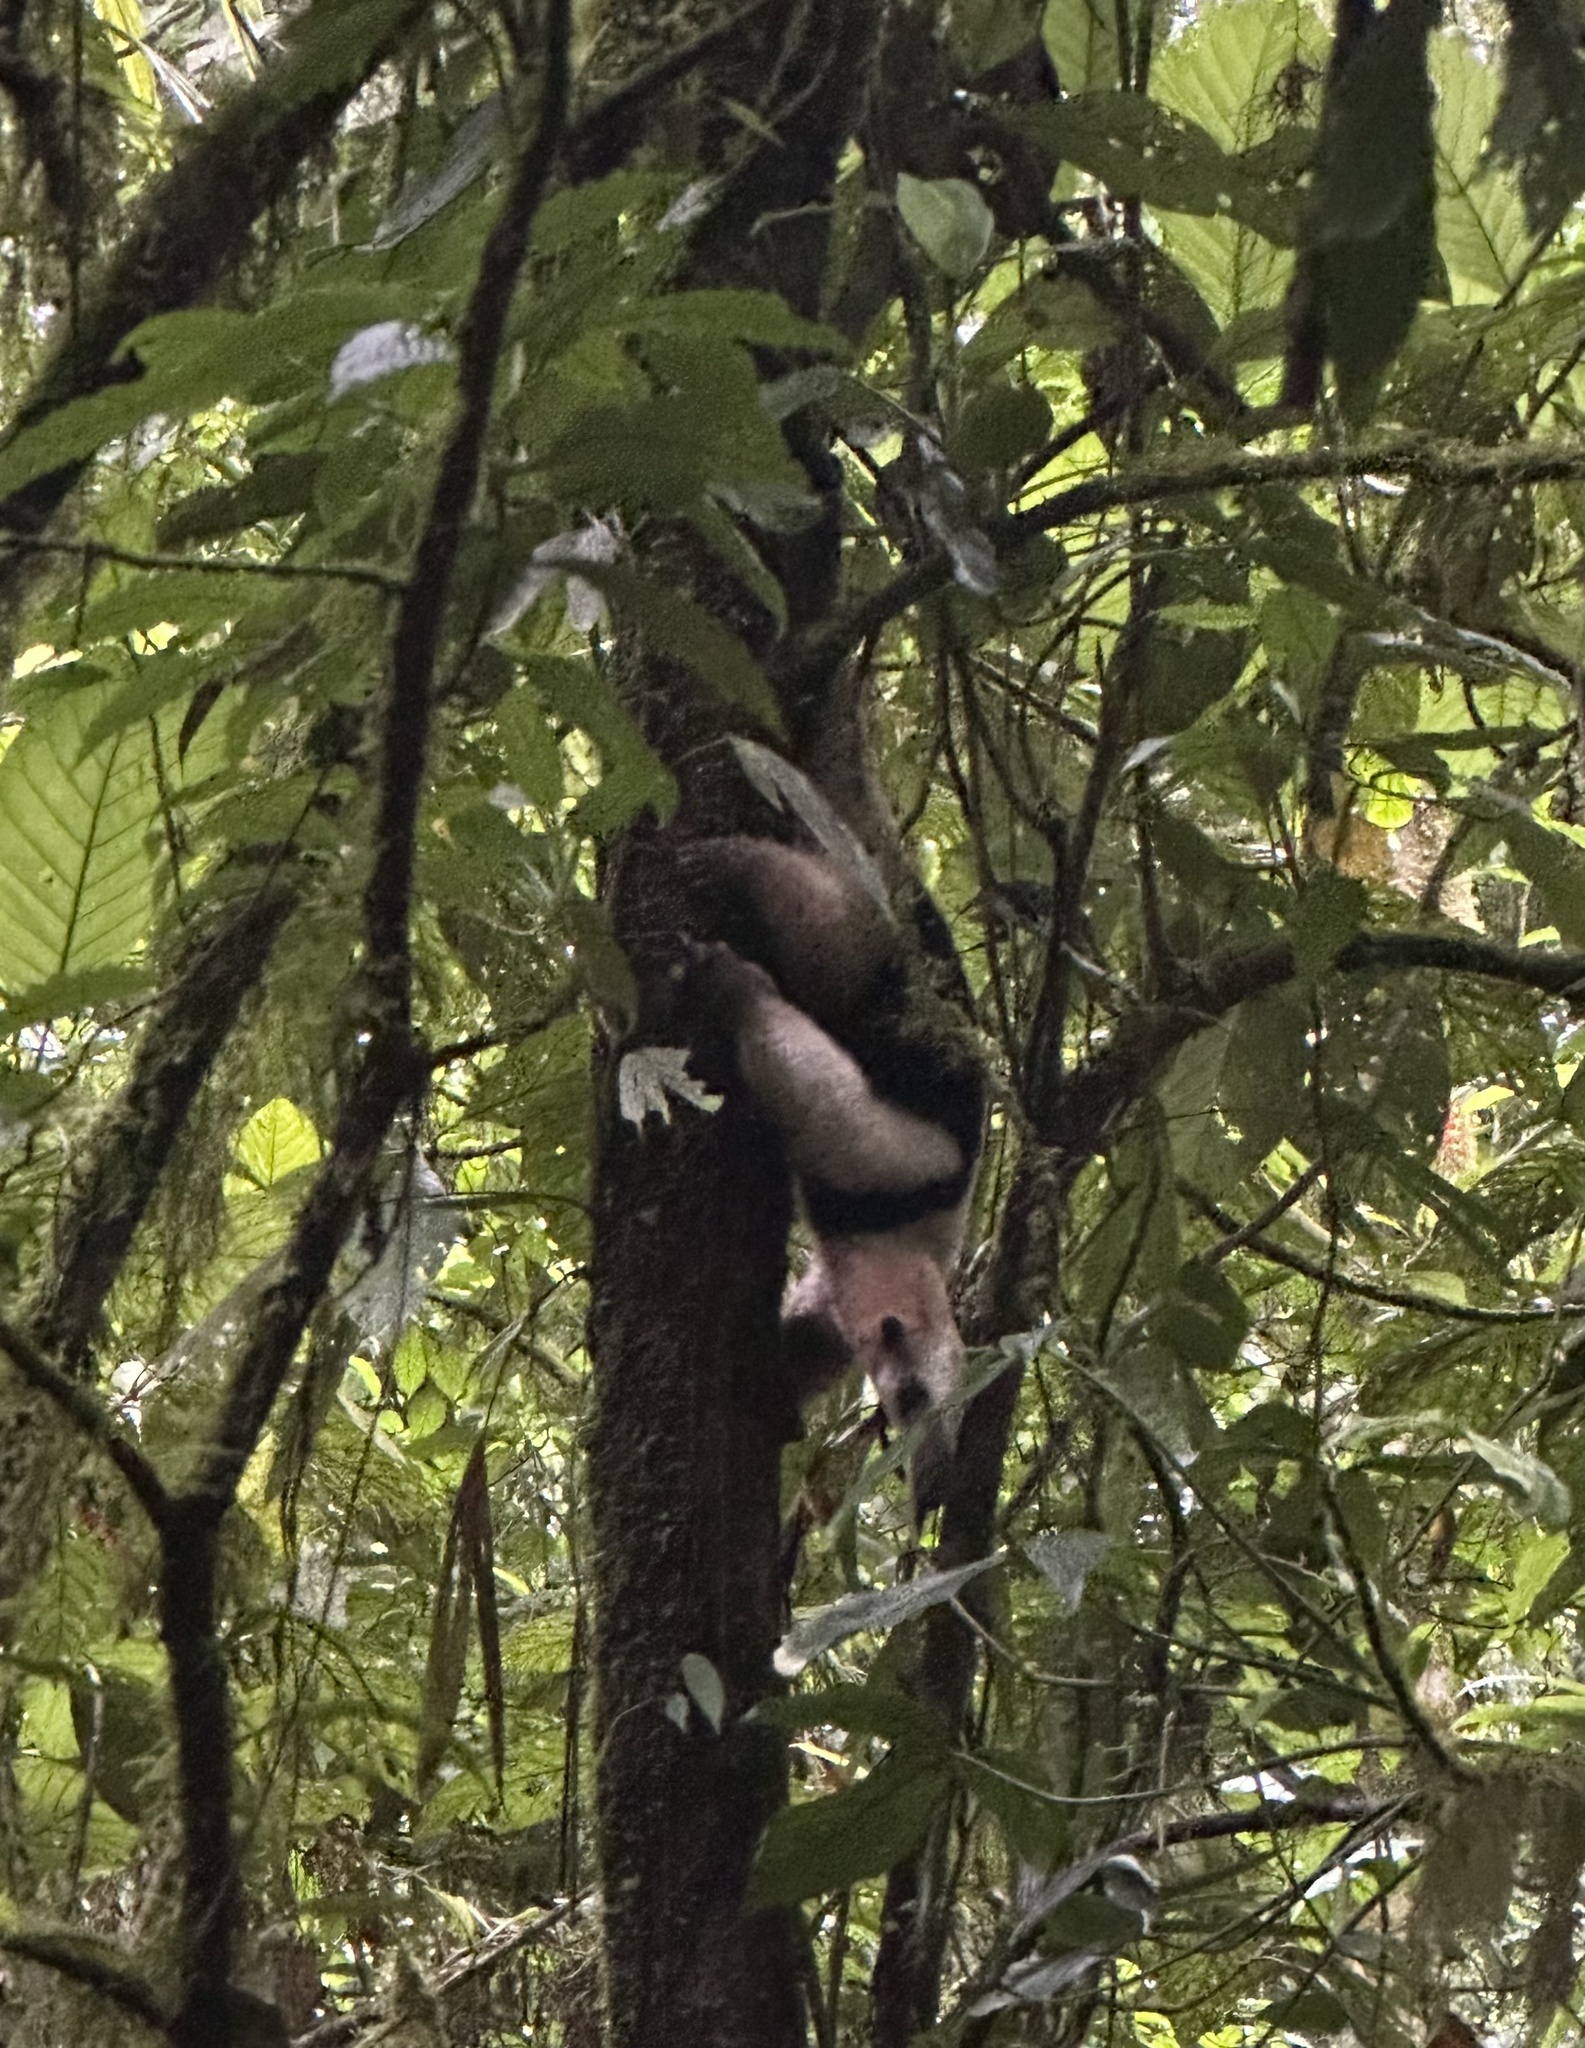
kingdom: Animalia
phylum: Chordata
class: Mammalia
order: Pilosa
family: Myrmecophagidae
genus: Tamandua
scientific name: Tamandua mexicana
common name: Northern tamandua
